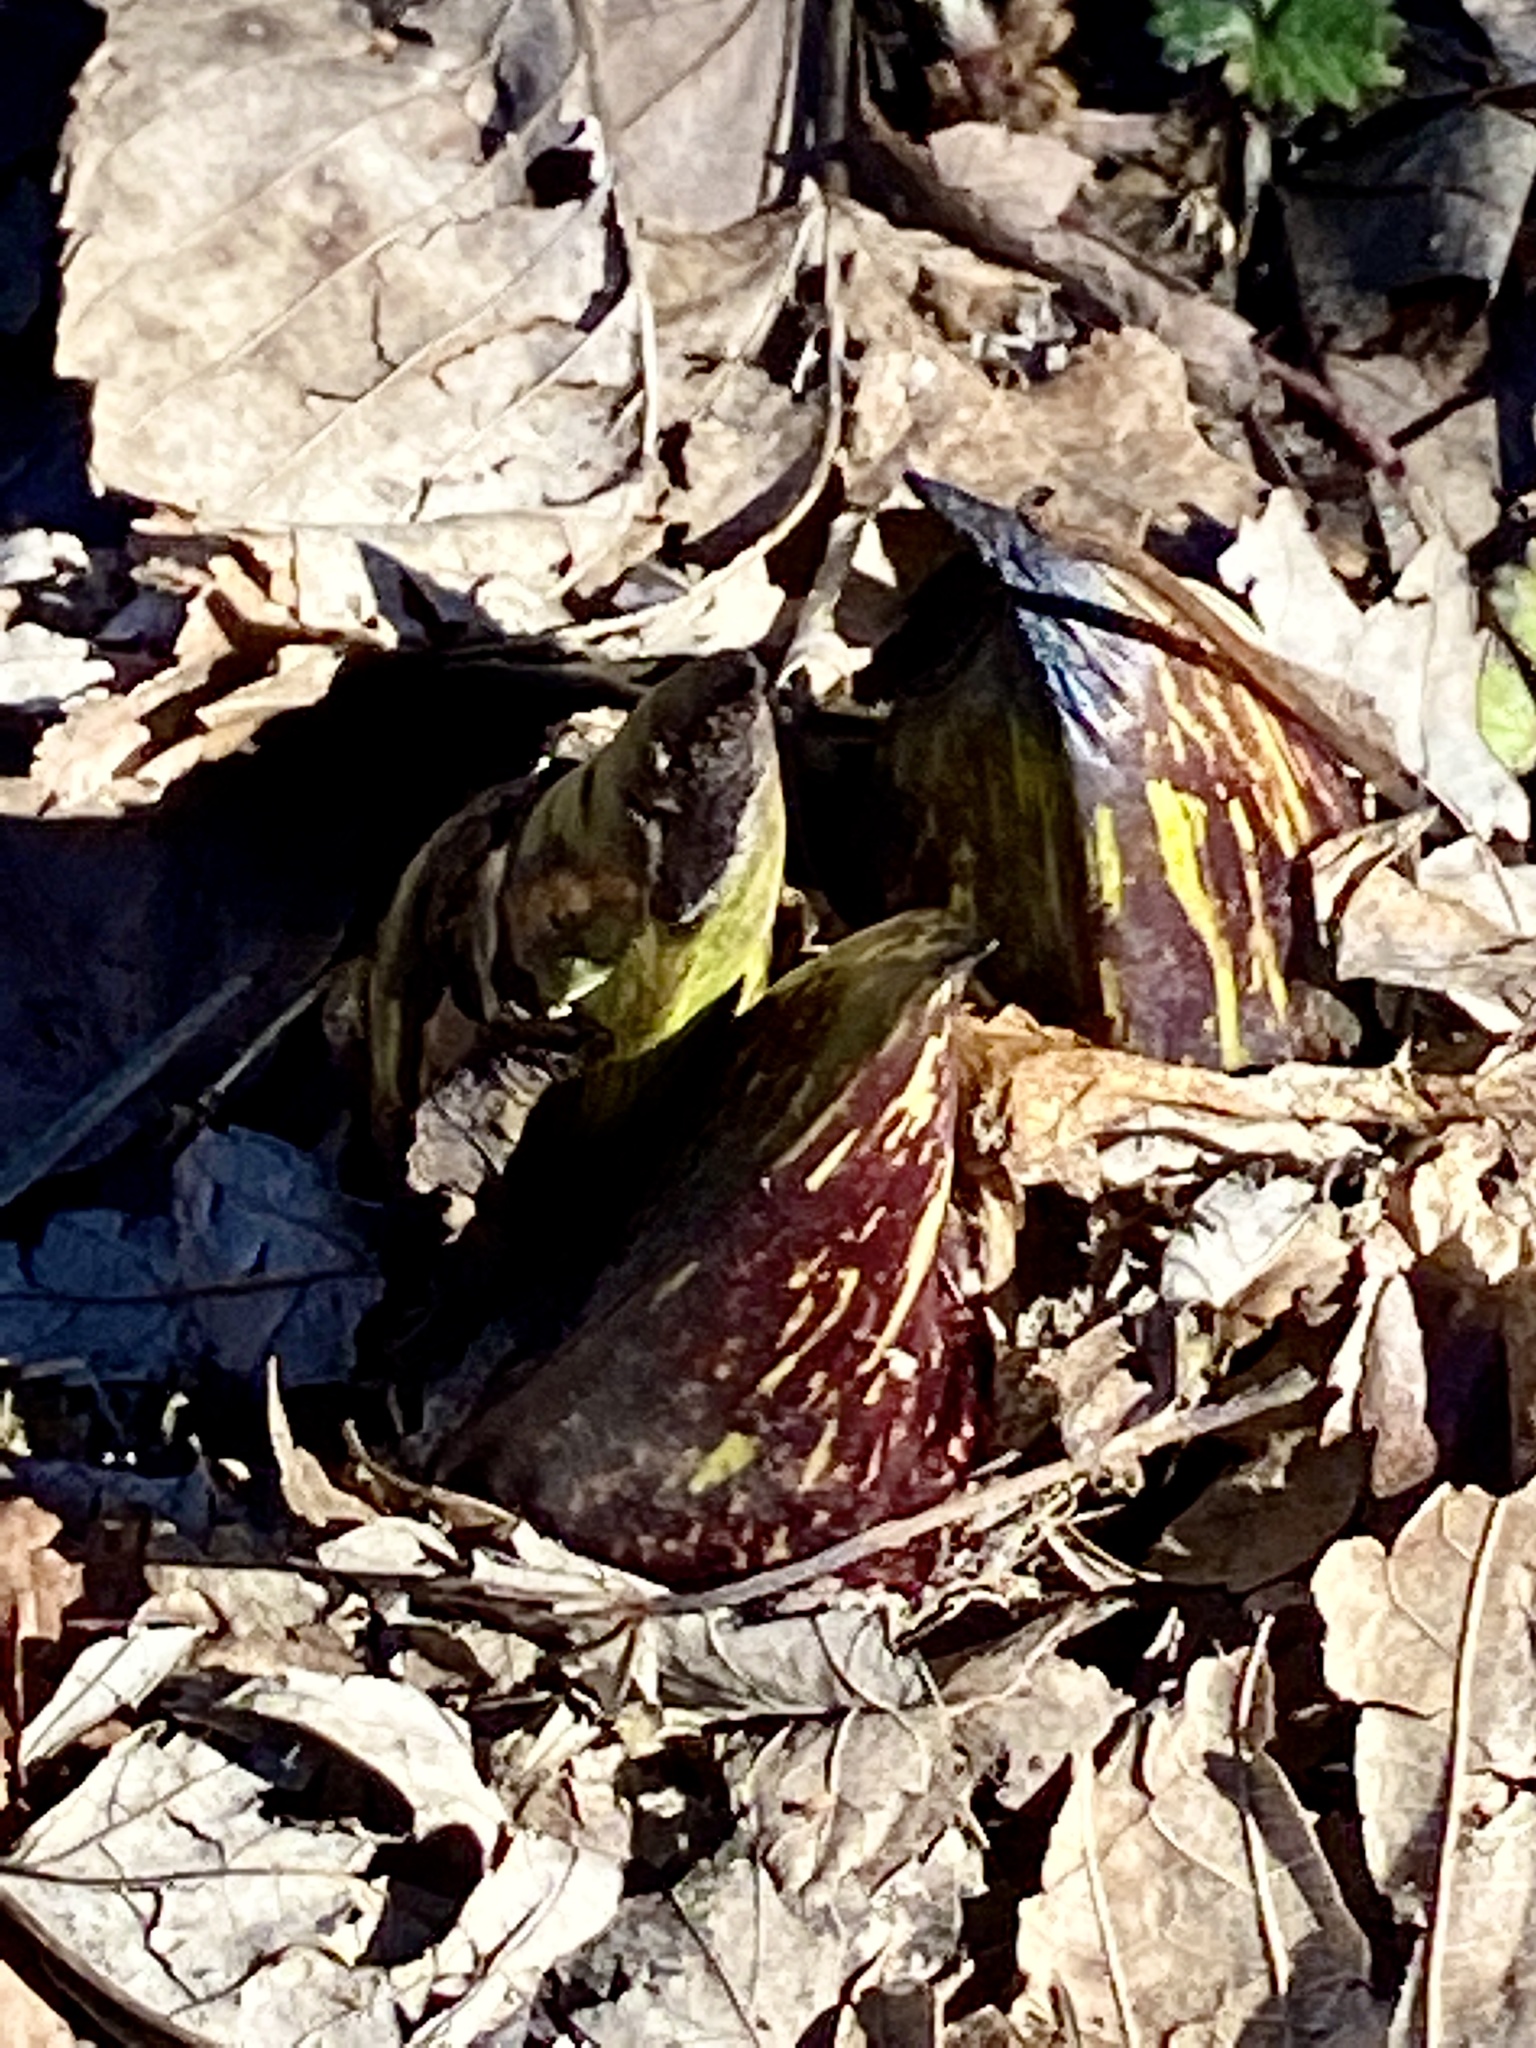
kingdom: Plantae
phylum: Tracheophyta
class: Liliopsida
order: Alismatales
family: Araceae
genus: Symplocarpus
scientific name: Symplocarpus foetidus
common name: Eastern skunk cabbage
